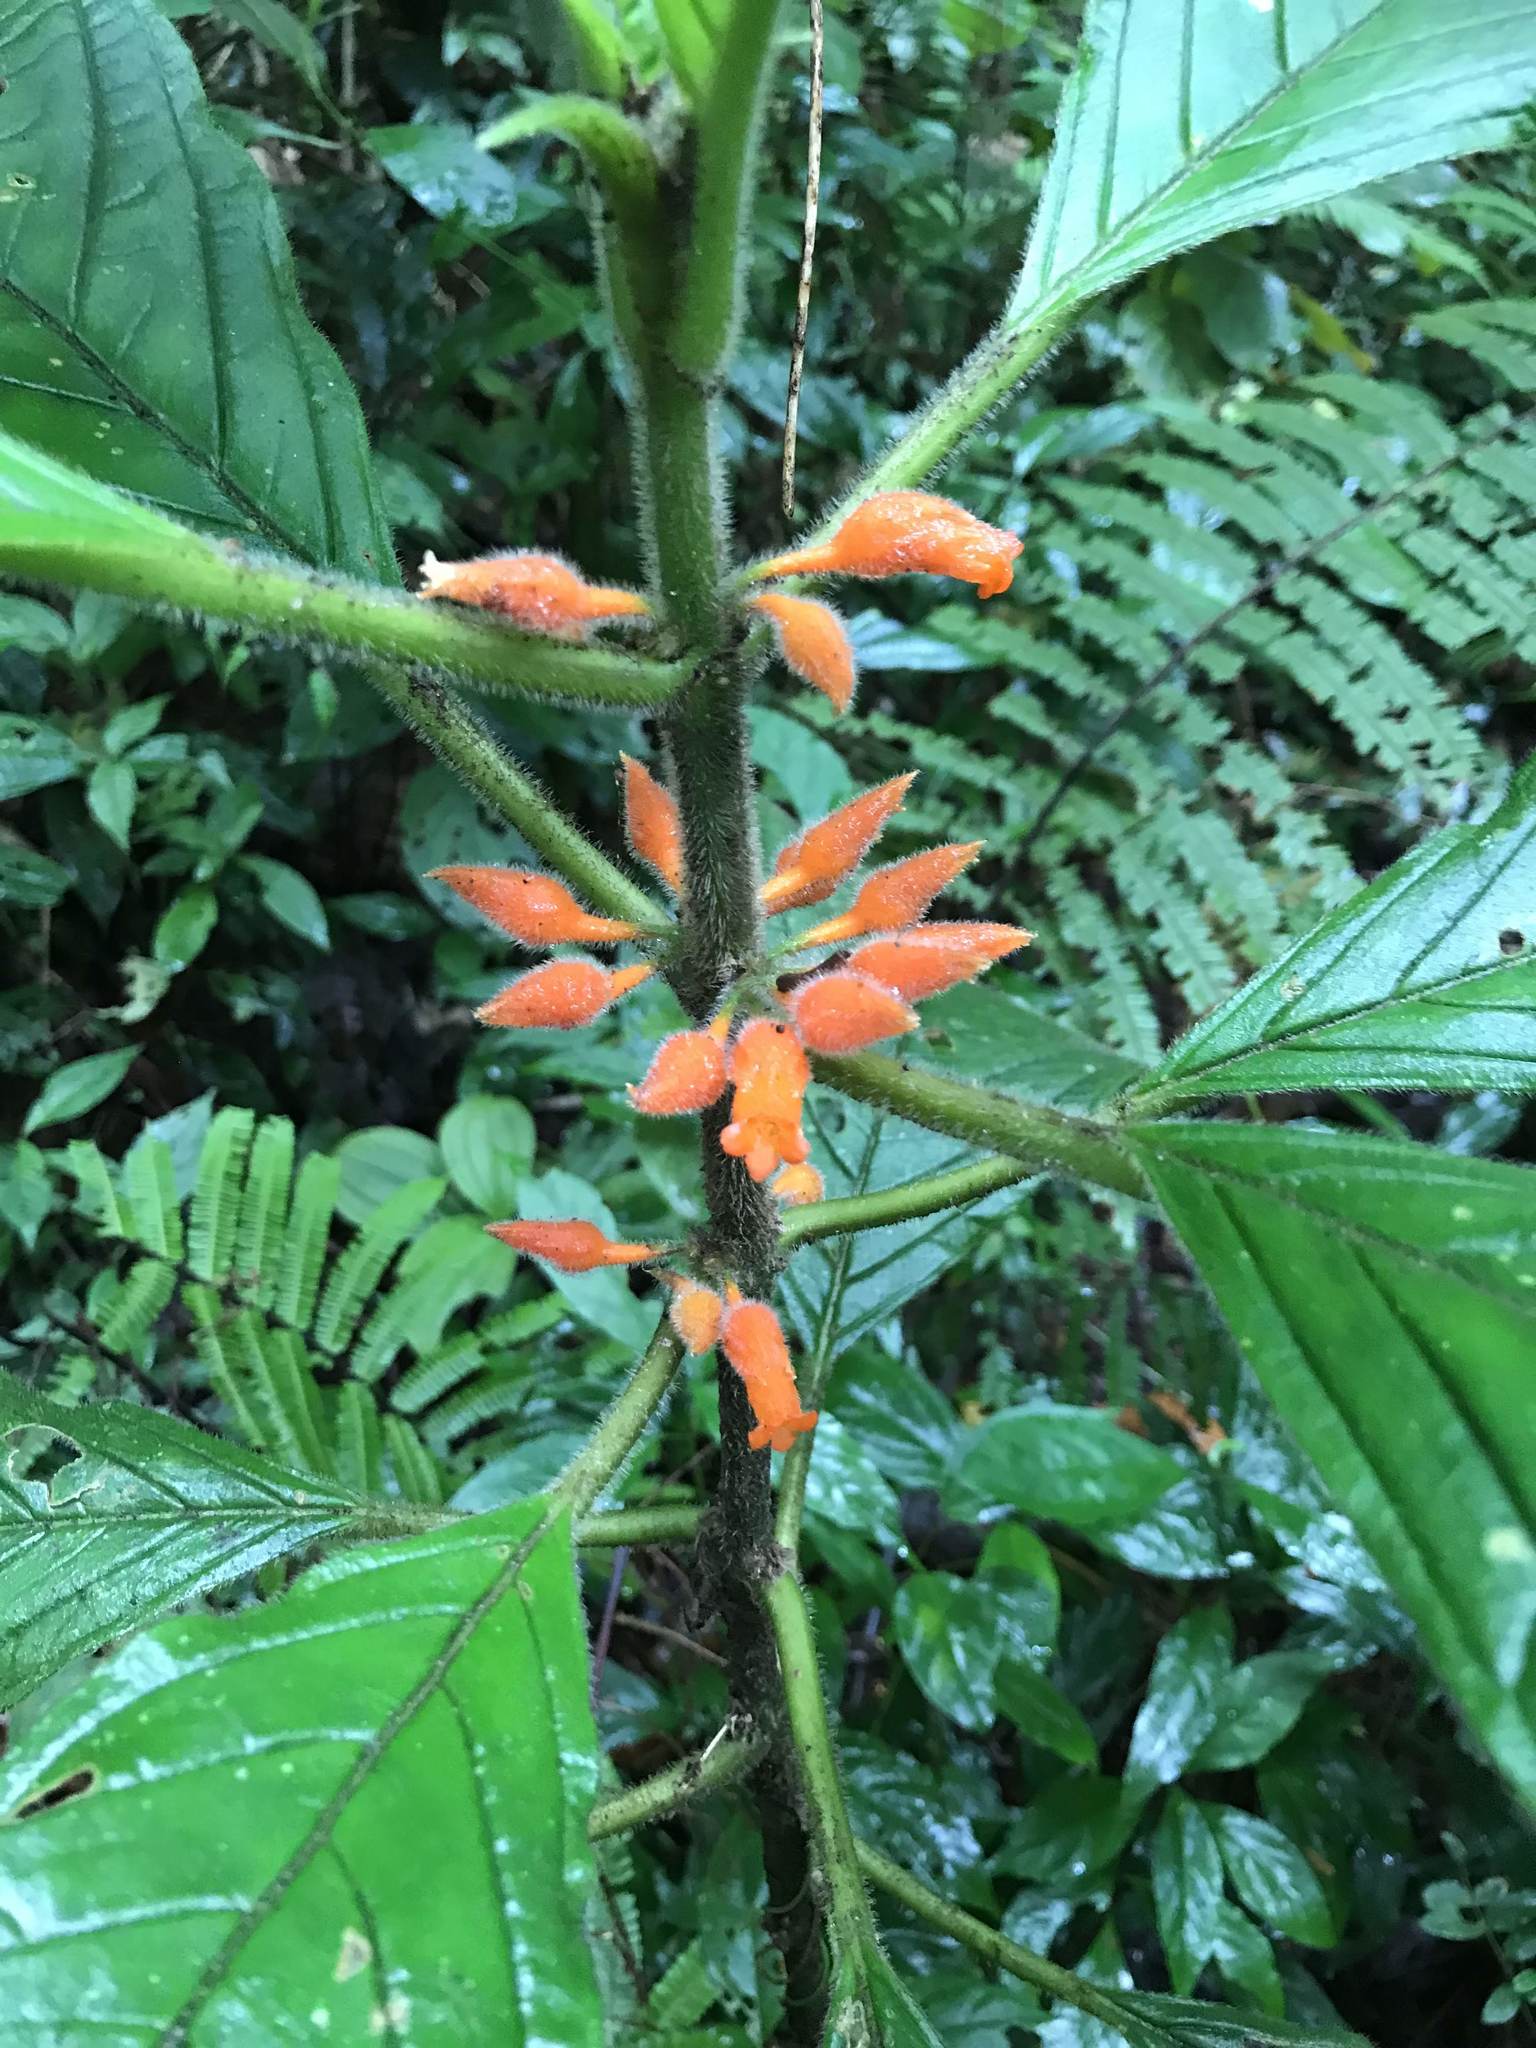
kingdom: Plantae
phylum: Tracheophyta
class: Magnoliopsida
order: Lamiales
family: Gesneriaceae
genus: Besleria
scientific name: Besleria columneoides
